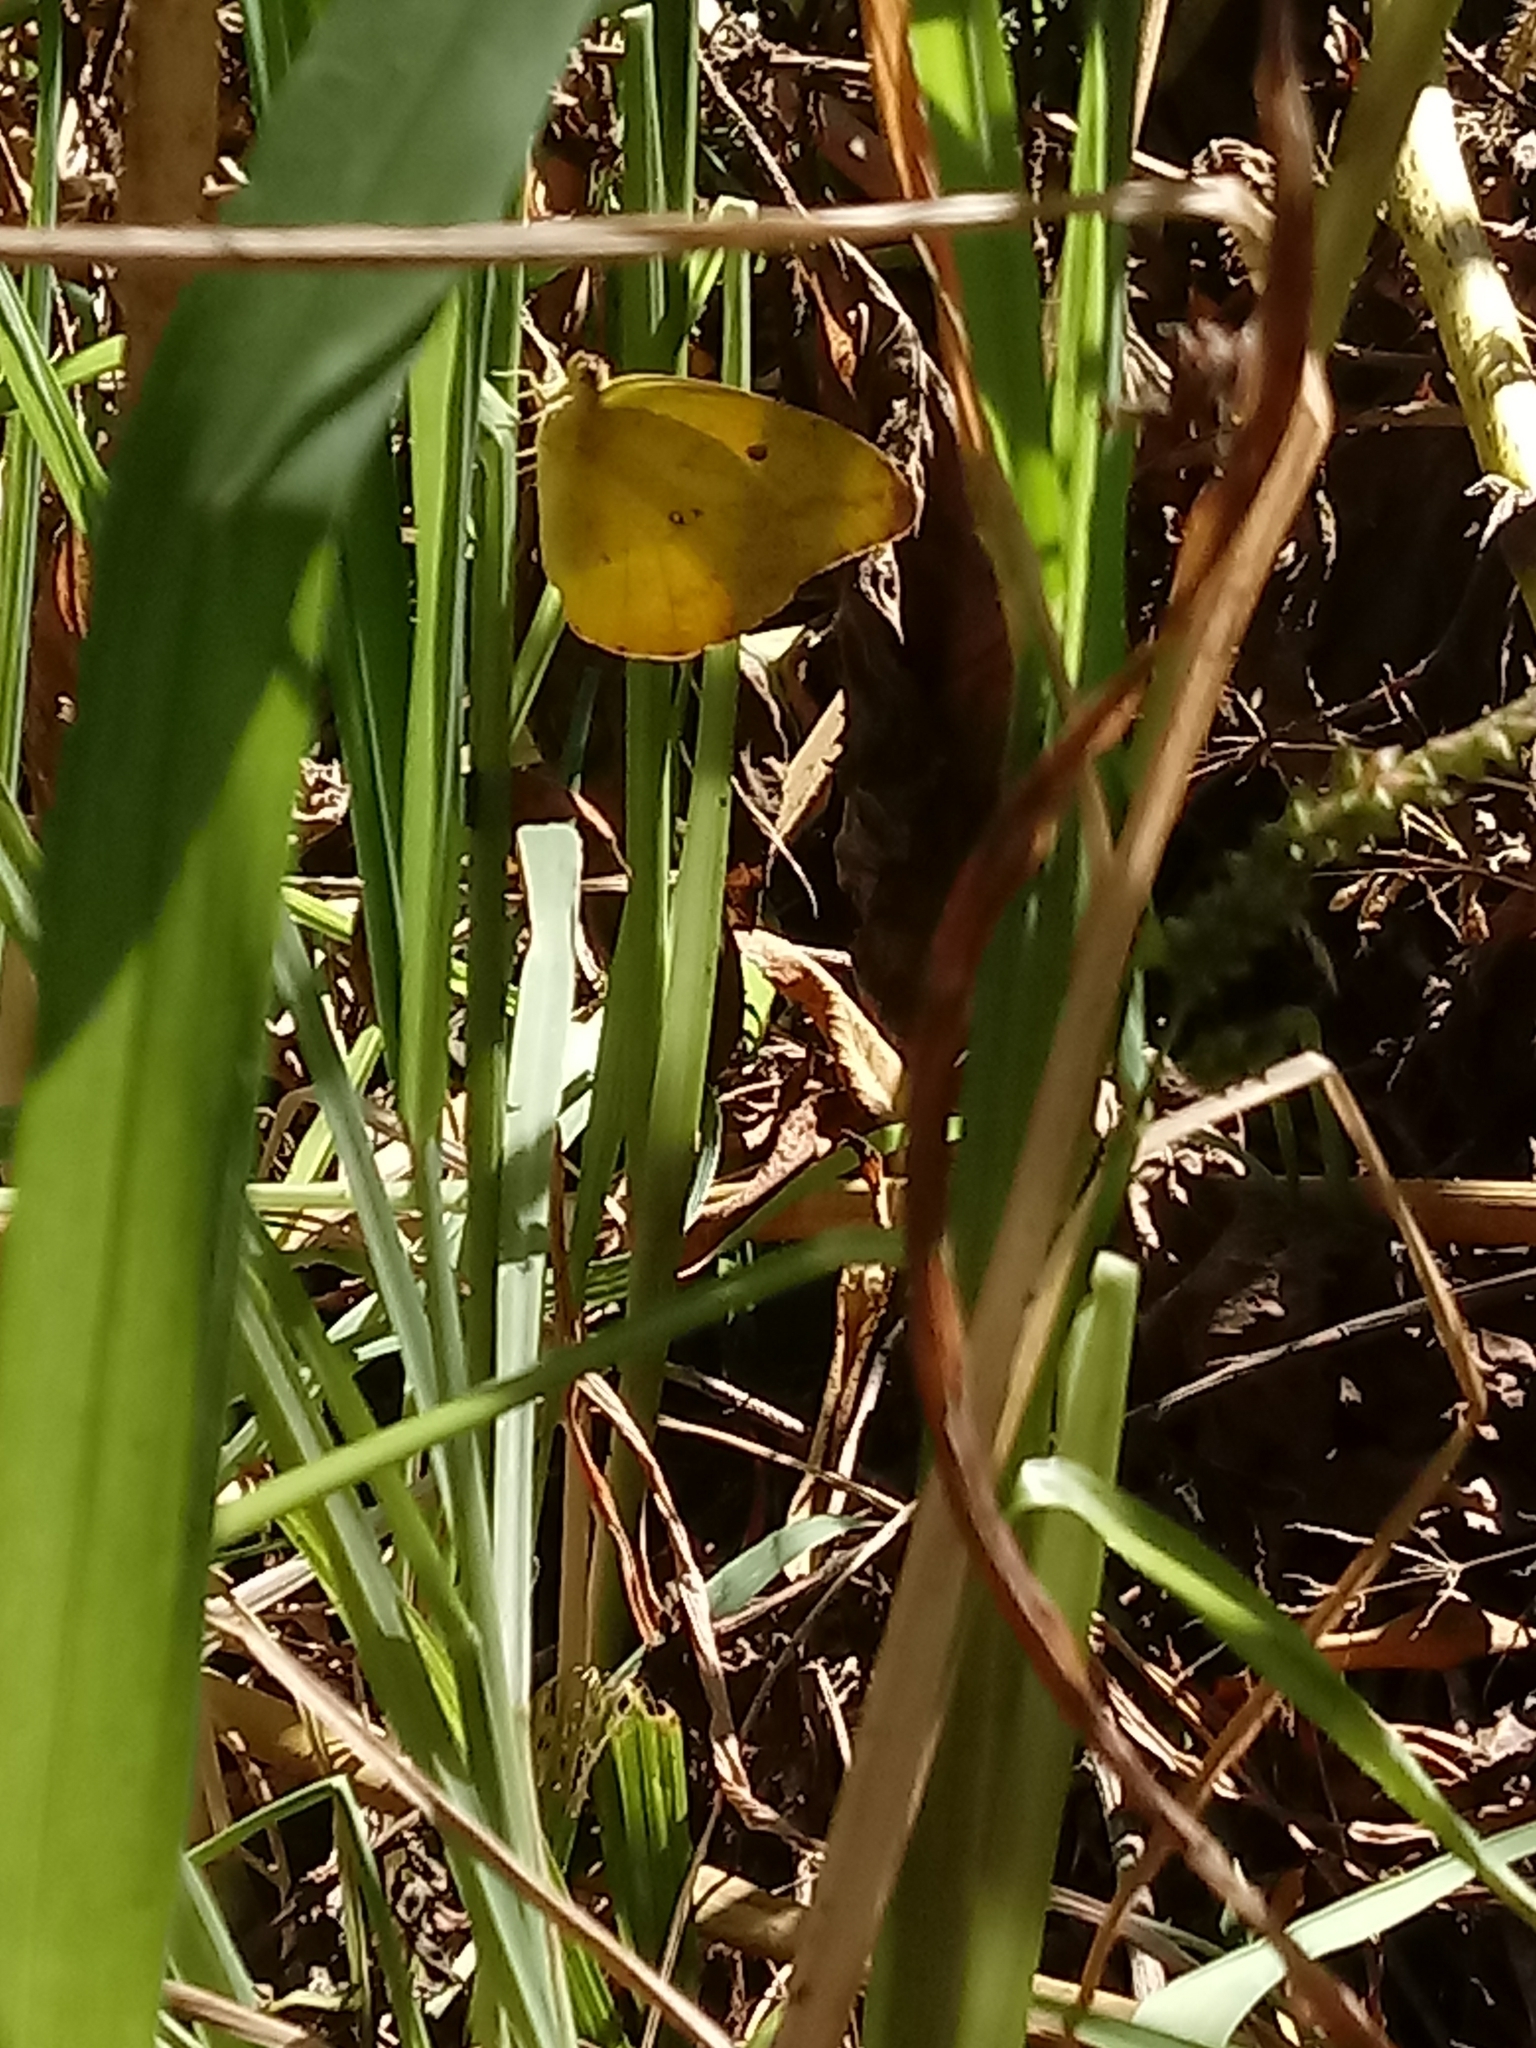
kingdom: Animalia
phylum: Arthropoda
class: Insecta
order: Lepidoptera
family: Pieridae
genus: Phoebis
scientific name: Phoebis agarithe
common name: Large orange sulphur
